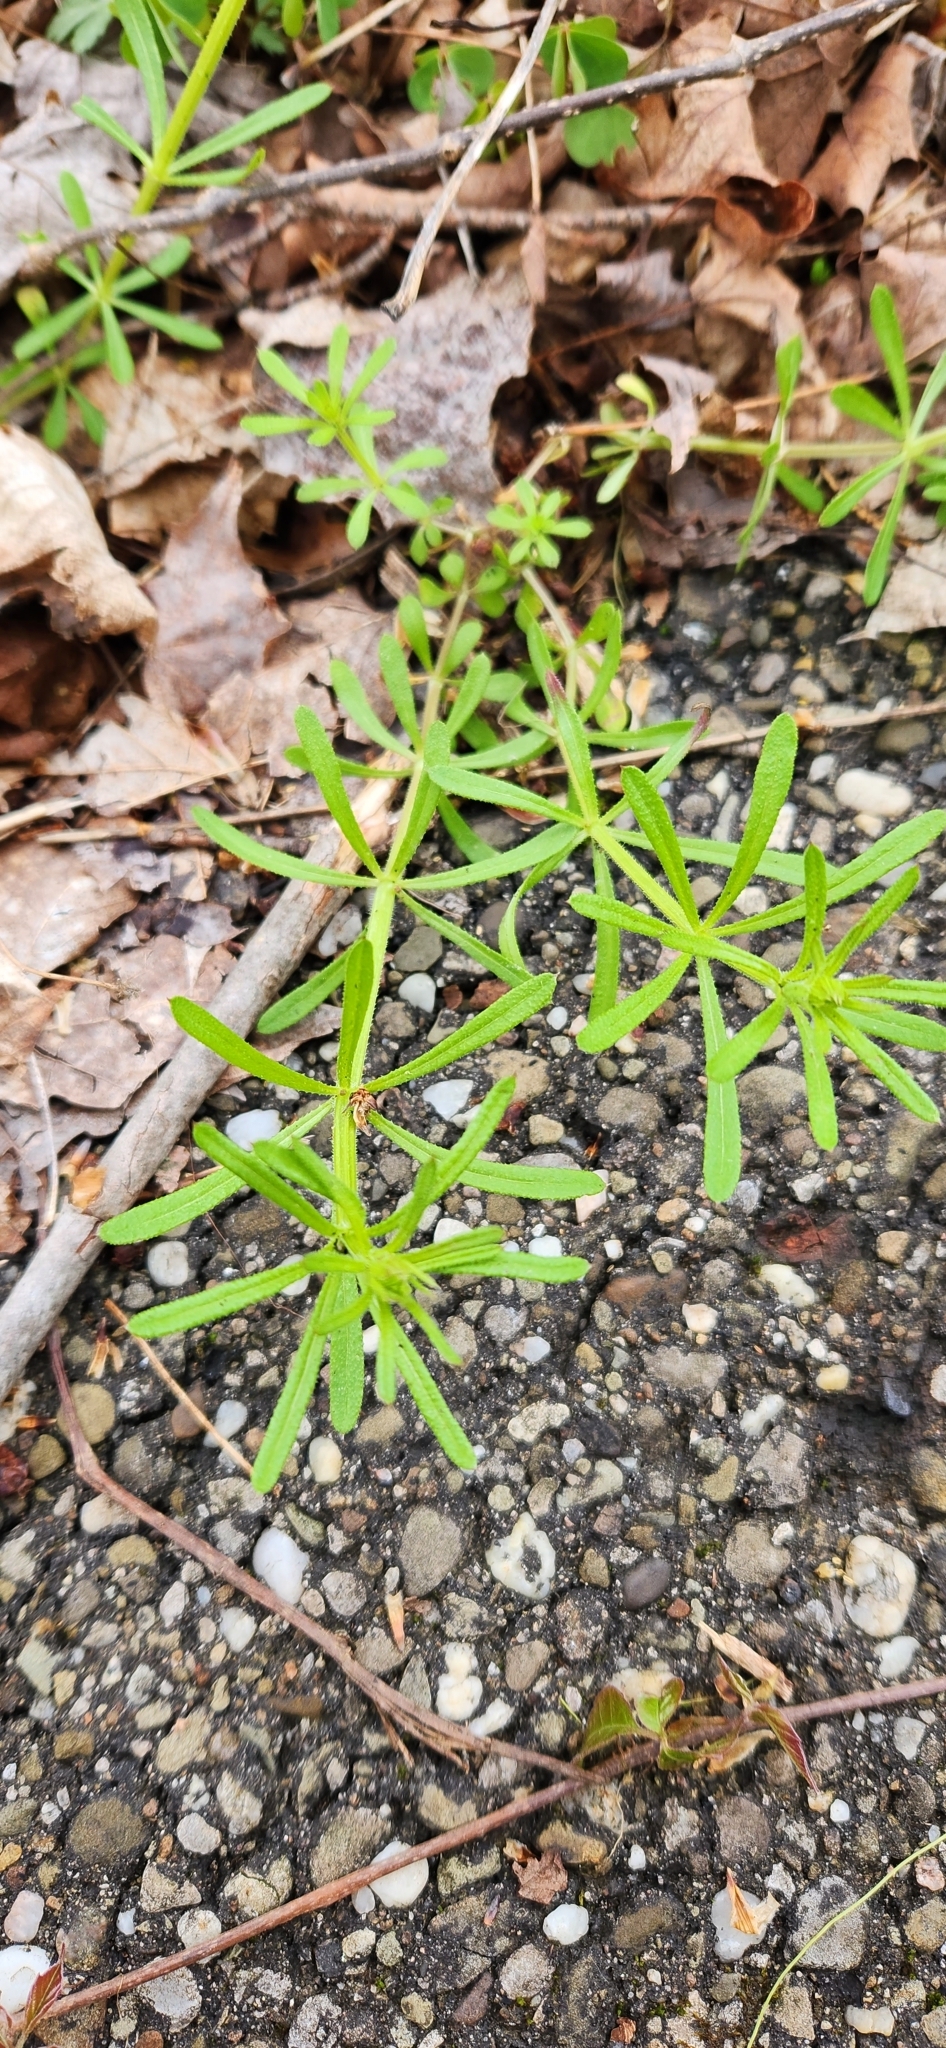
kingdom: Plantae
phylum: Tracheophyta
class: Magnoliopsida
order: Gentianales
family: Rubiaceae
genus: Galium
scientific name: Galium aparine
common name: Cleavers
